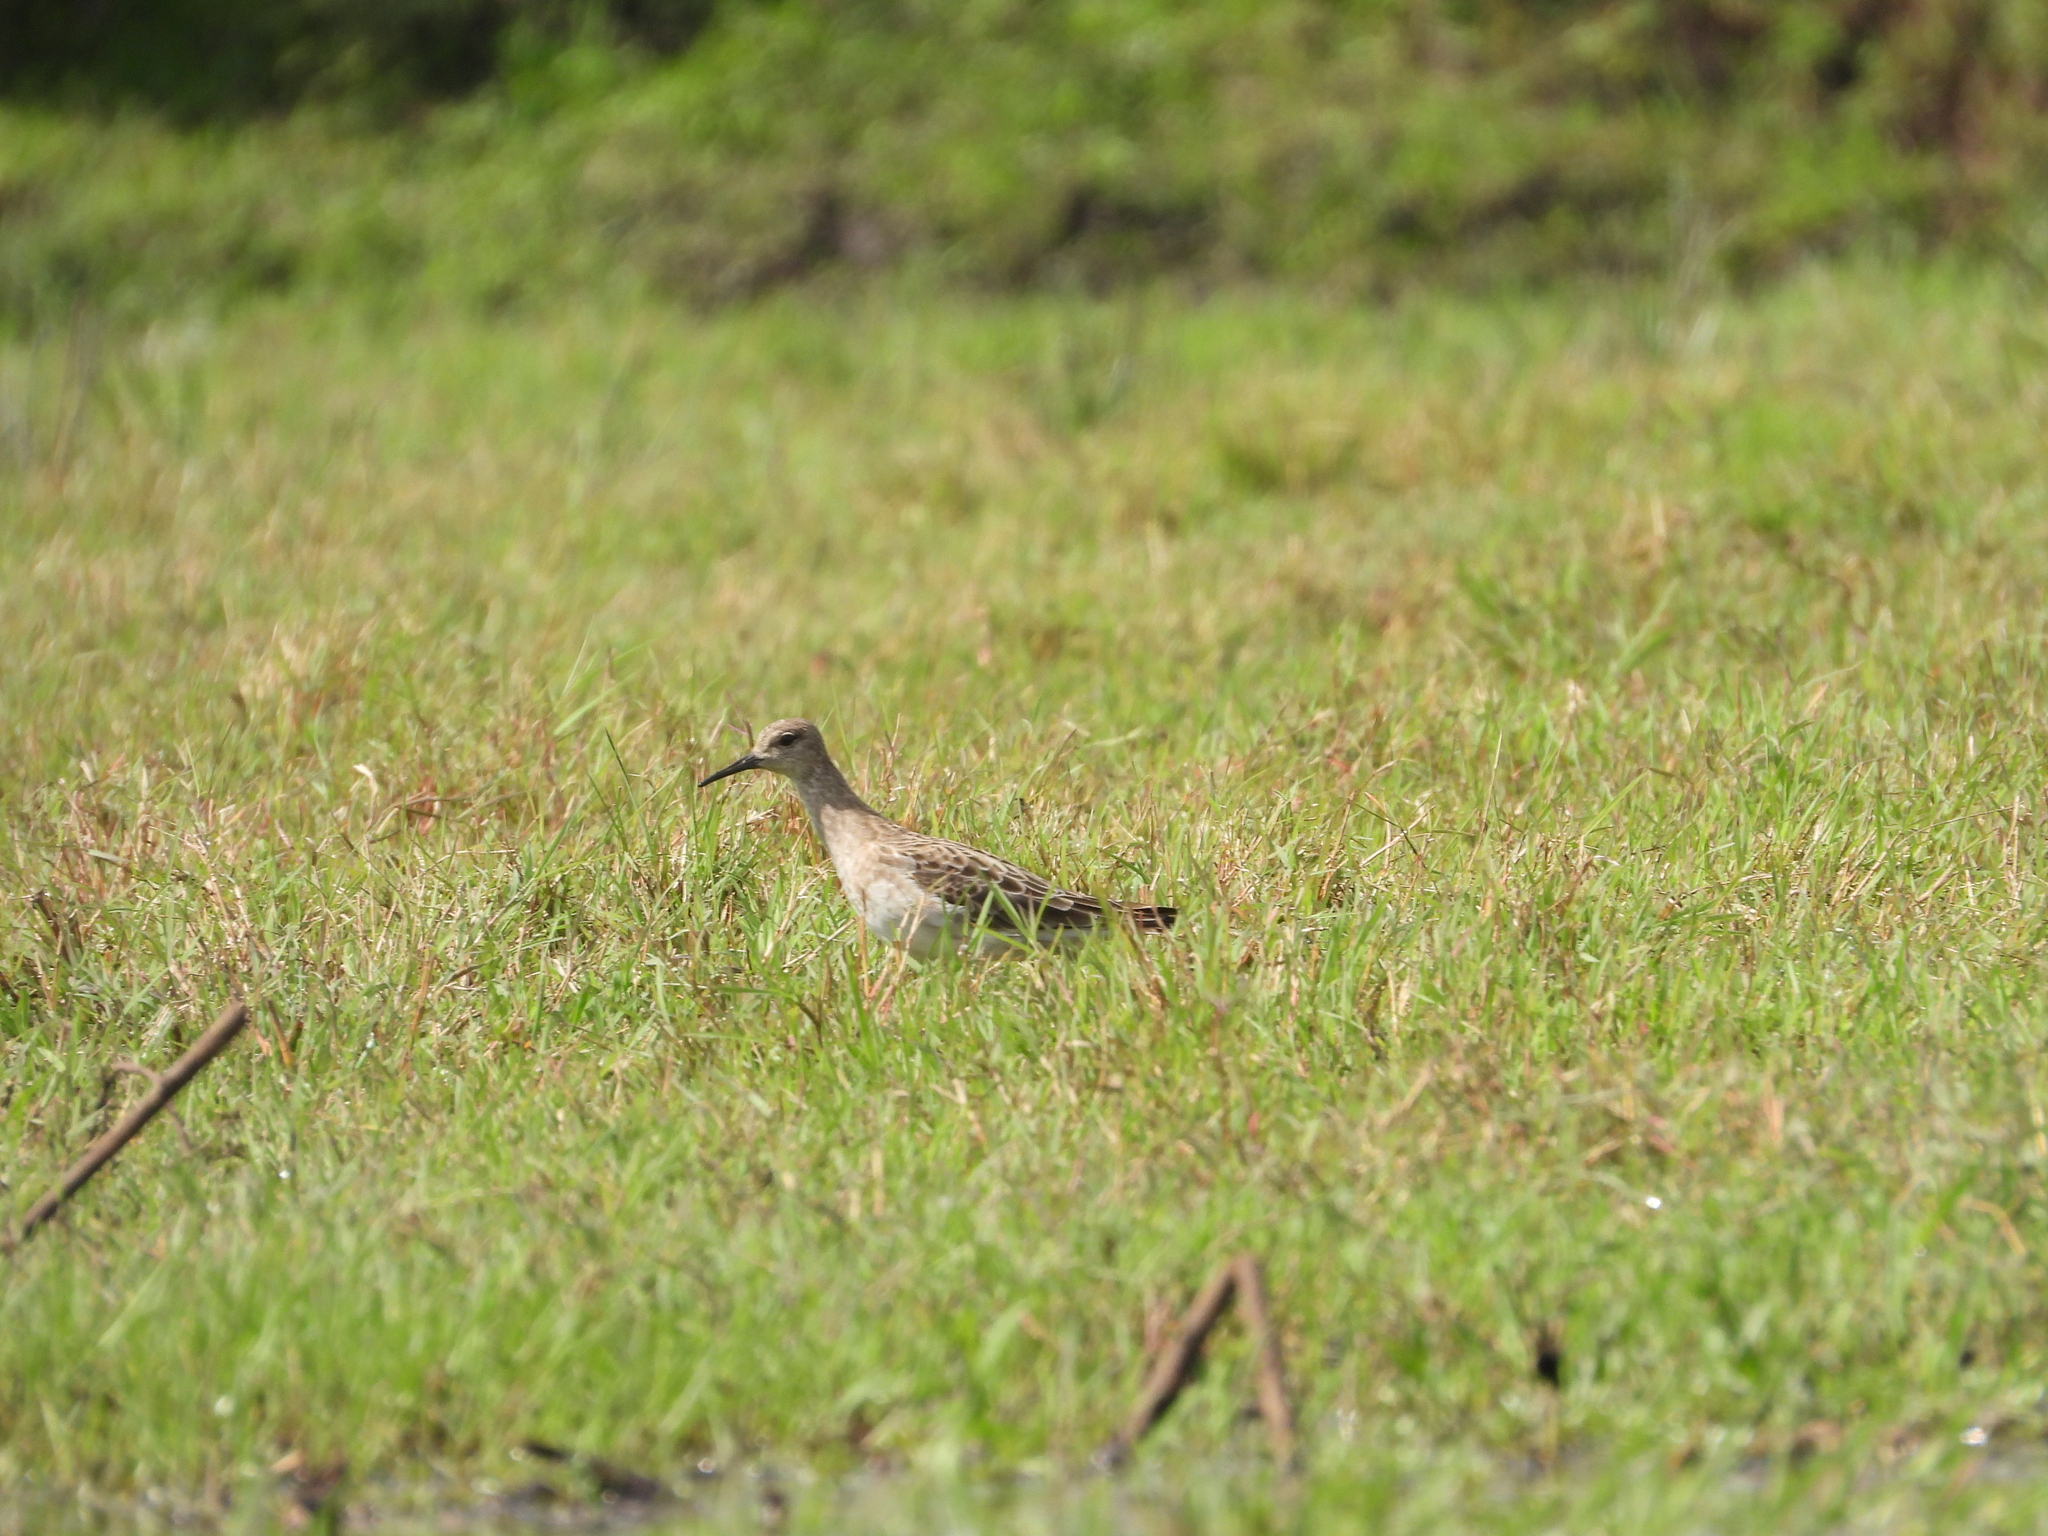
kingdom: Animalia
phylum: Chordata
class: Aves
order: Charadriiformes
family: Scolopacidae
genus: Calidris
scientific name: Calidris pugnax
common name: Ruff
